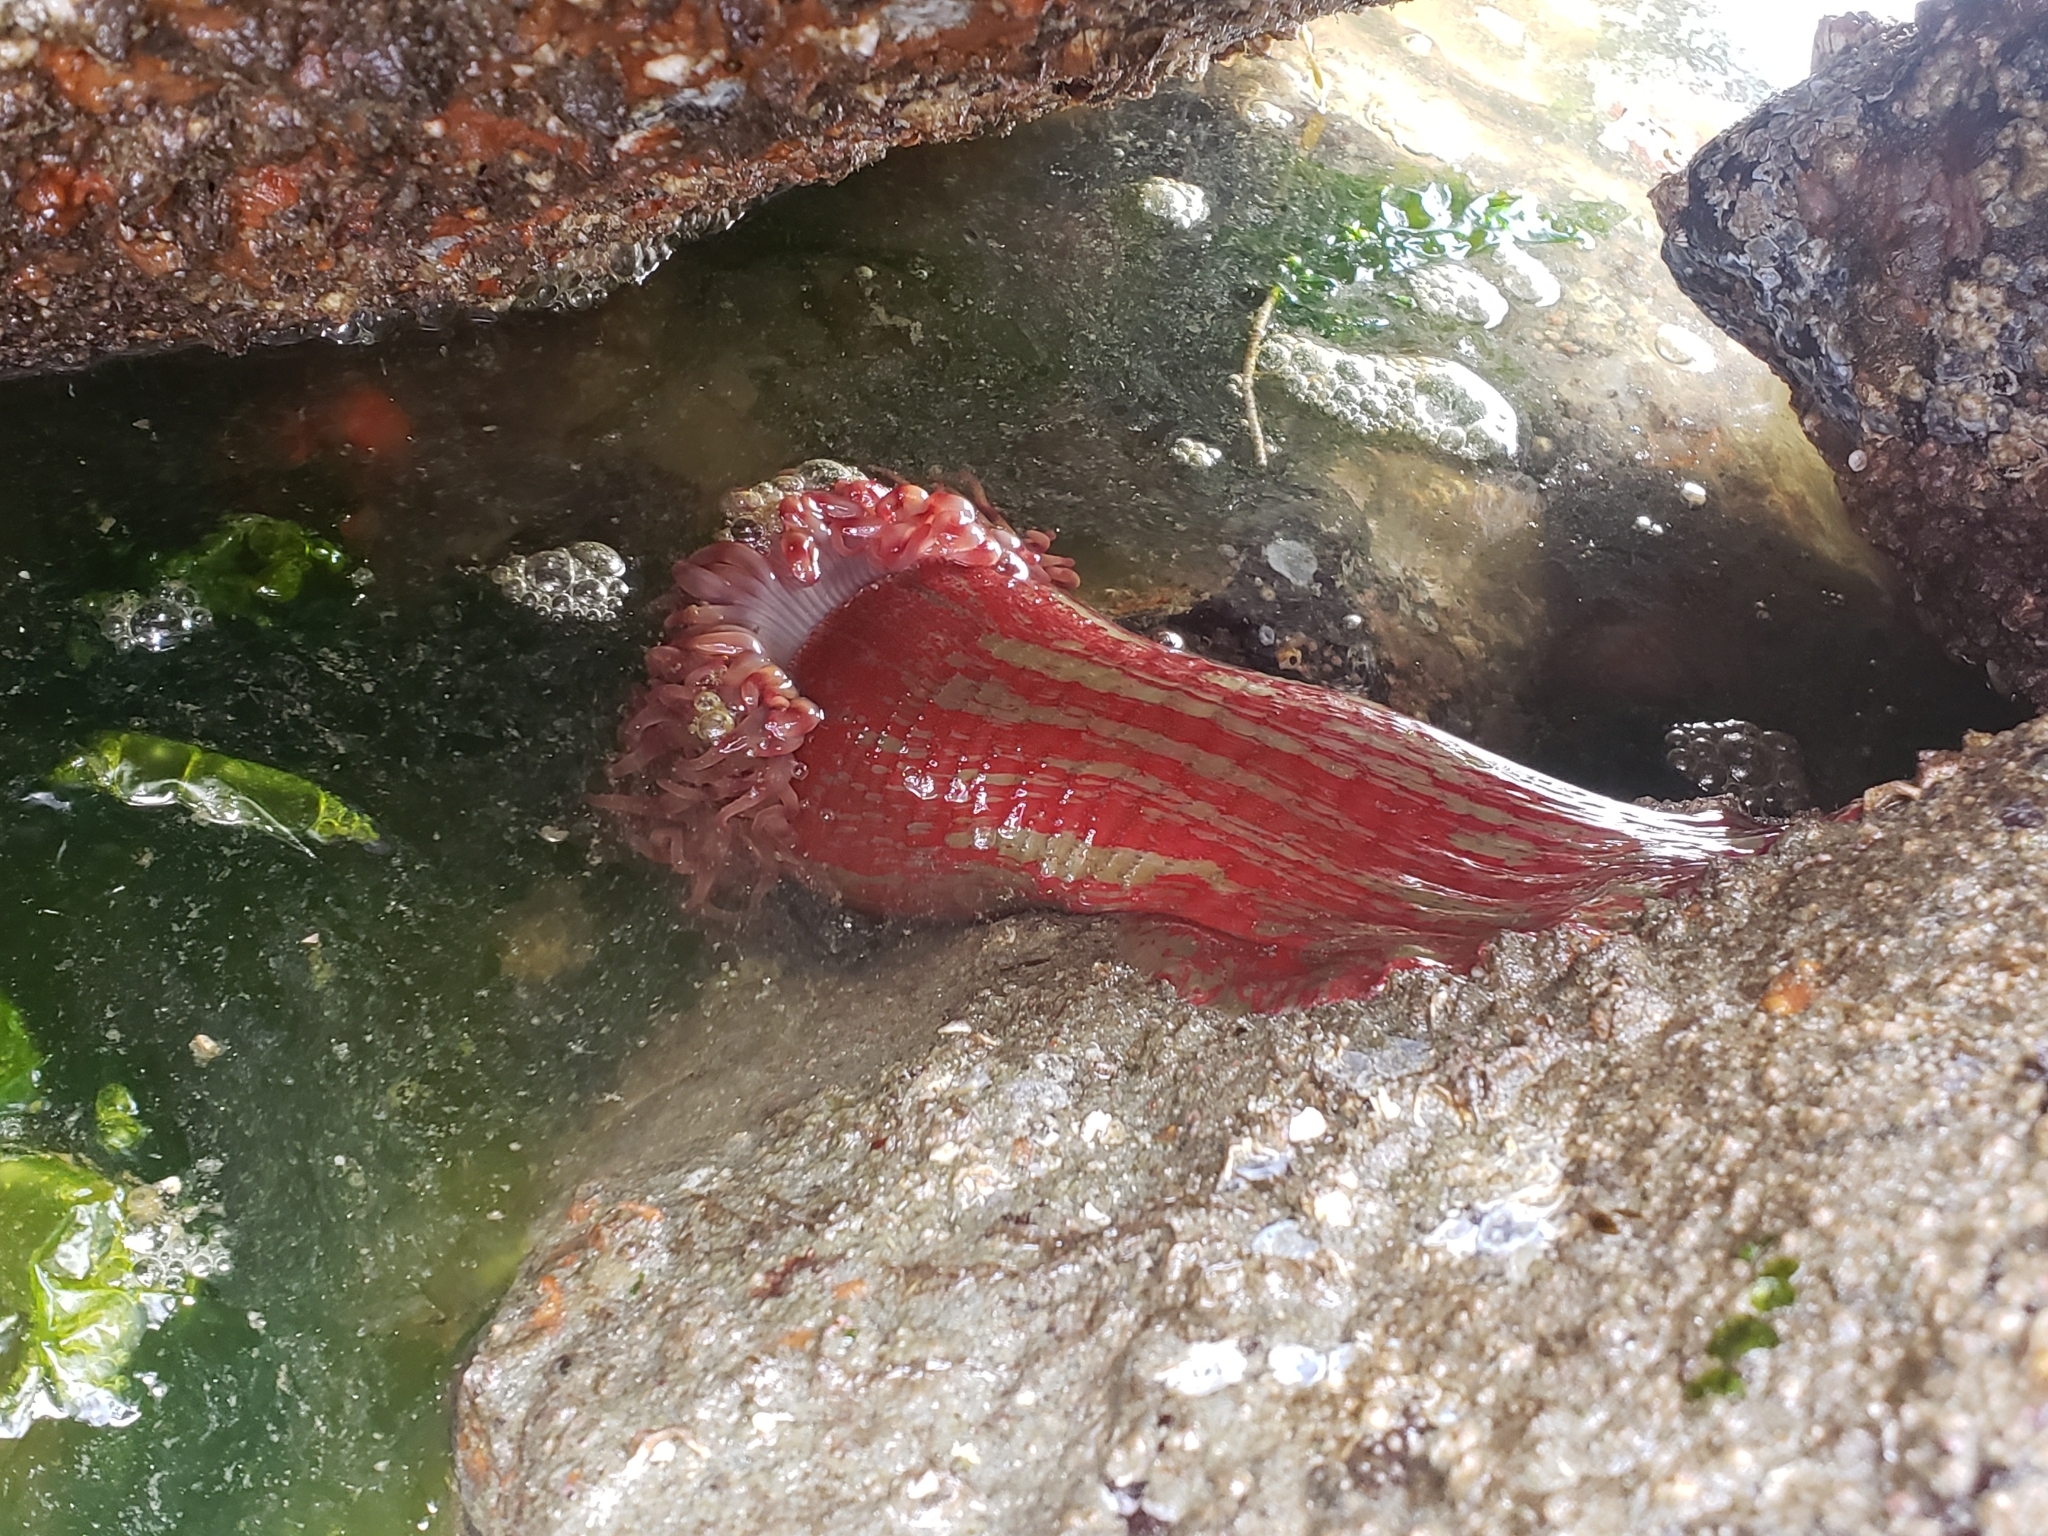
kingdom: Animalia
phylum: Cnidaria
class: Anthozoa
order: Actiniaria
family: Actiniidae
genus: Urticina
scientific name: Urticina grebelnyi
